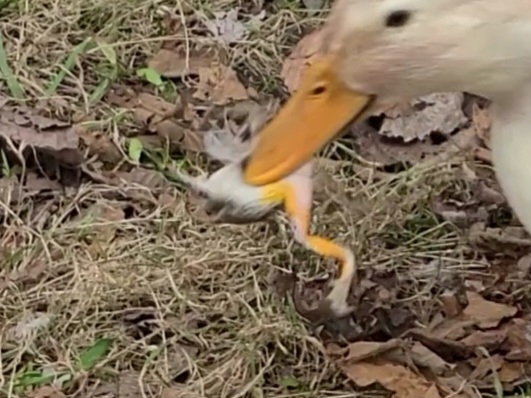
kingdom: Animalia
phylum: Chordata
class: Amphibia
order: Anura
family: Hylidae
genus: Dryophytes
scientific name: Dryophytes versicolor
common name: Gray treefrog
